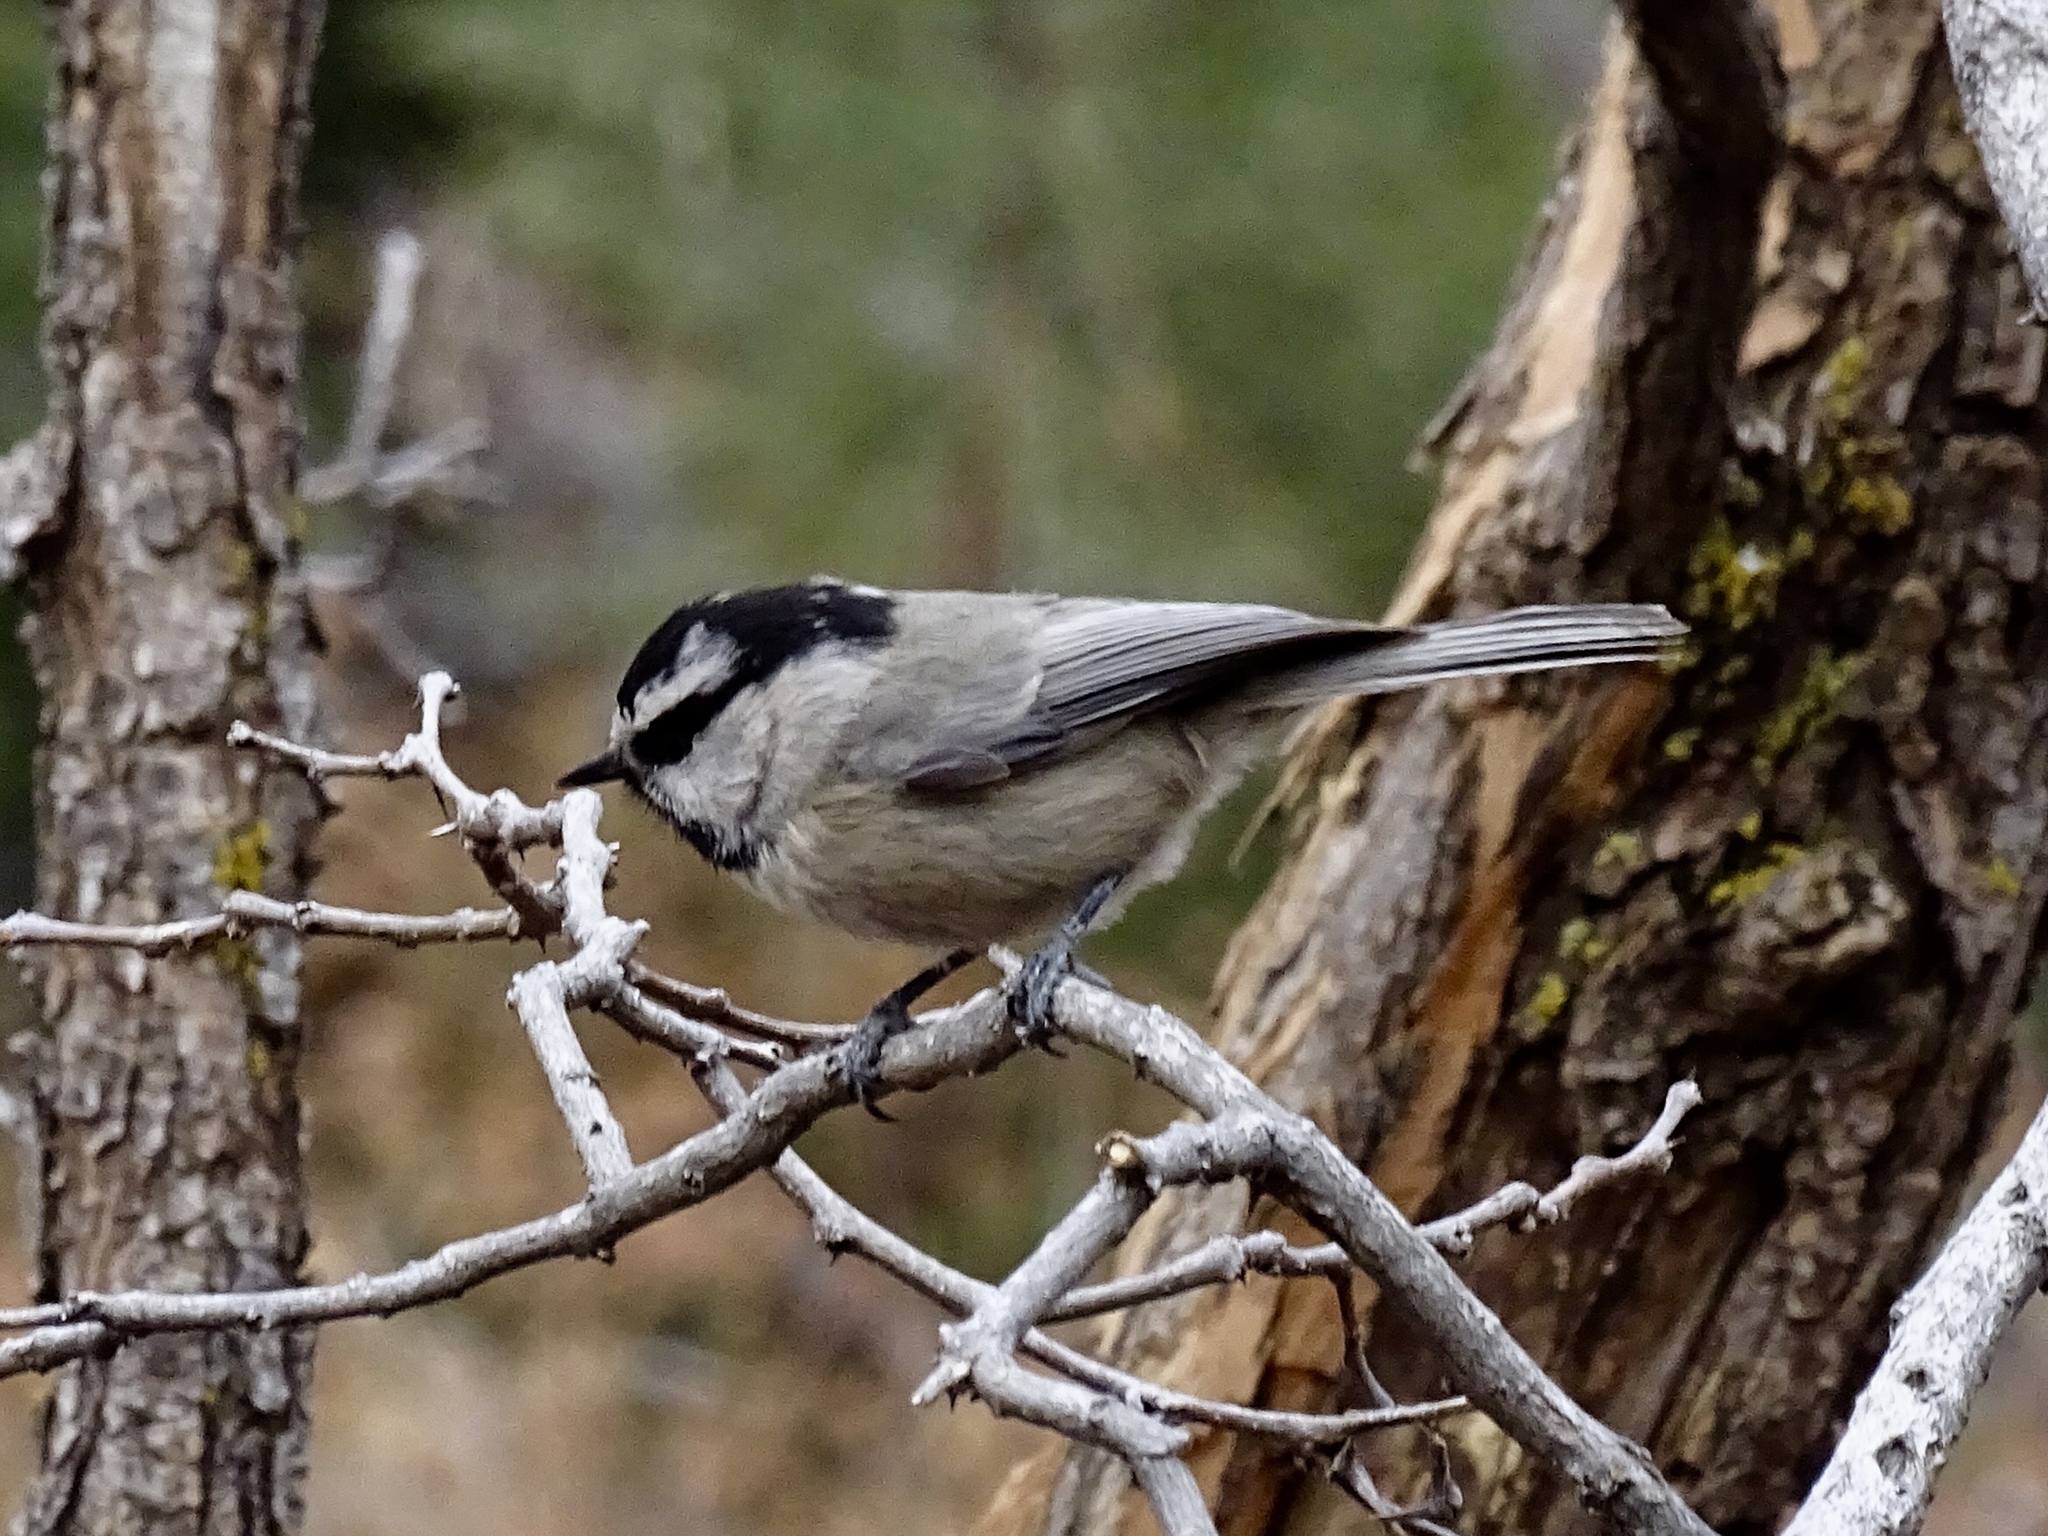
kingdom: Animalia
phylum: Chordata
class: Aves
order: Passeriformes
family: Paridae
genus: Poecile
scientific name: Poecile gambeli
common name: Mountain chickadee
